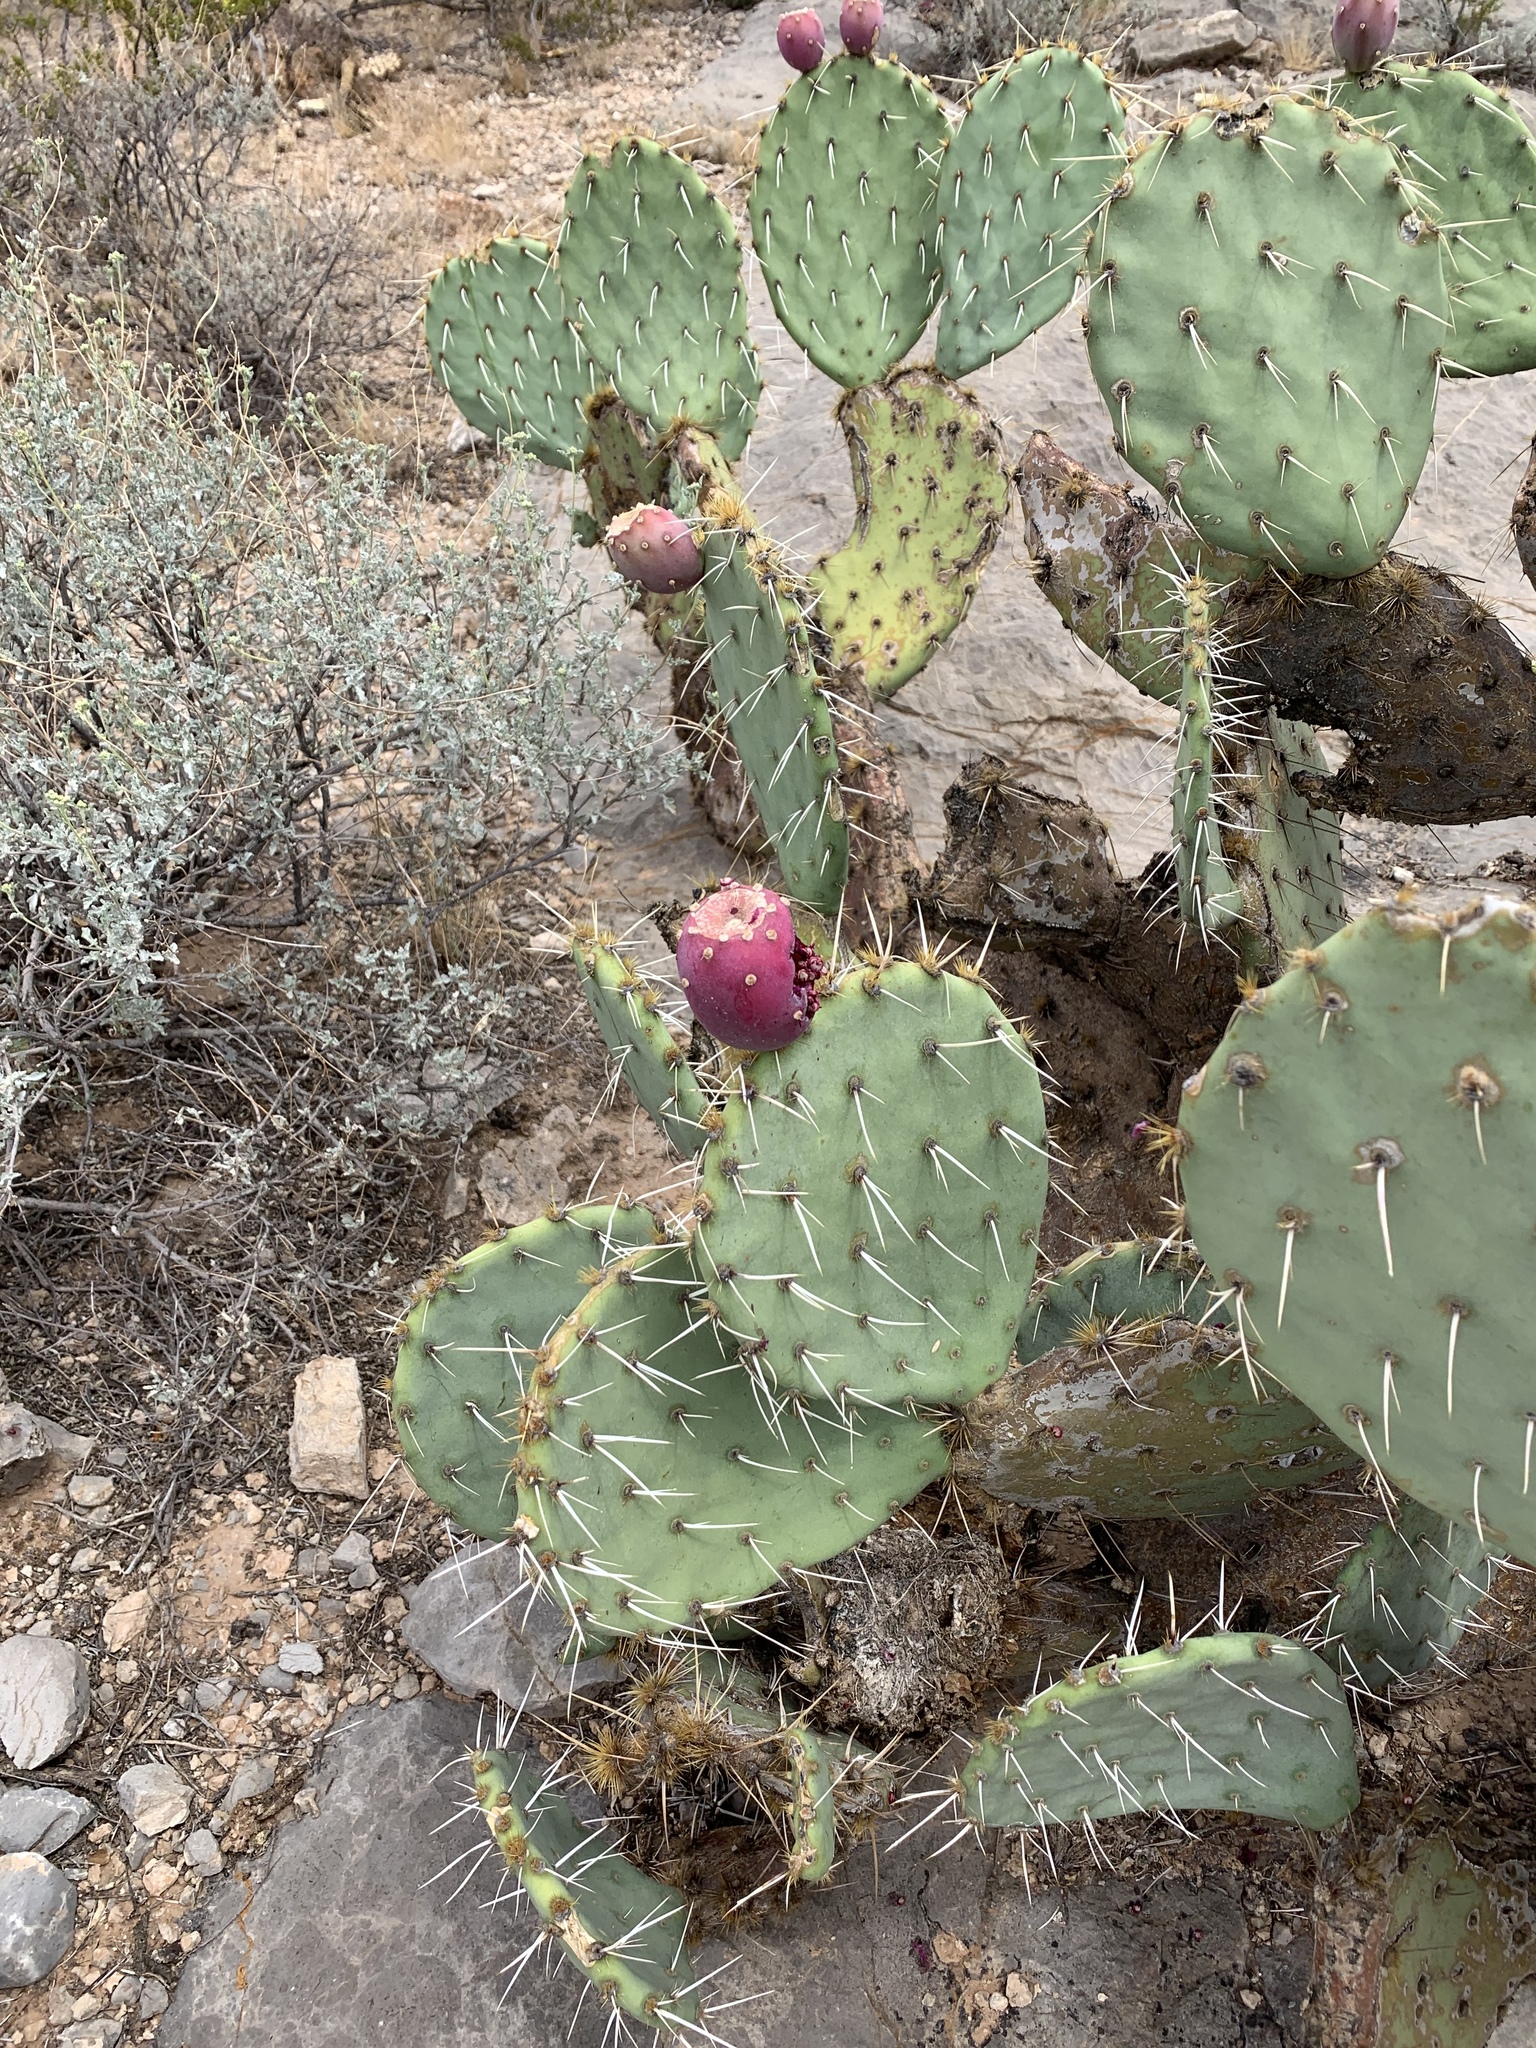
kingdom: Plantae
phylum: Tracheophyta
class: Magnoliopsida
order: Caryophyllales
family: Cactaceae
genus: Opuntia
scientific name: Opuntia engelmannii
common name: Cactus-apple
